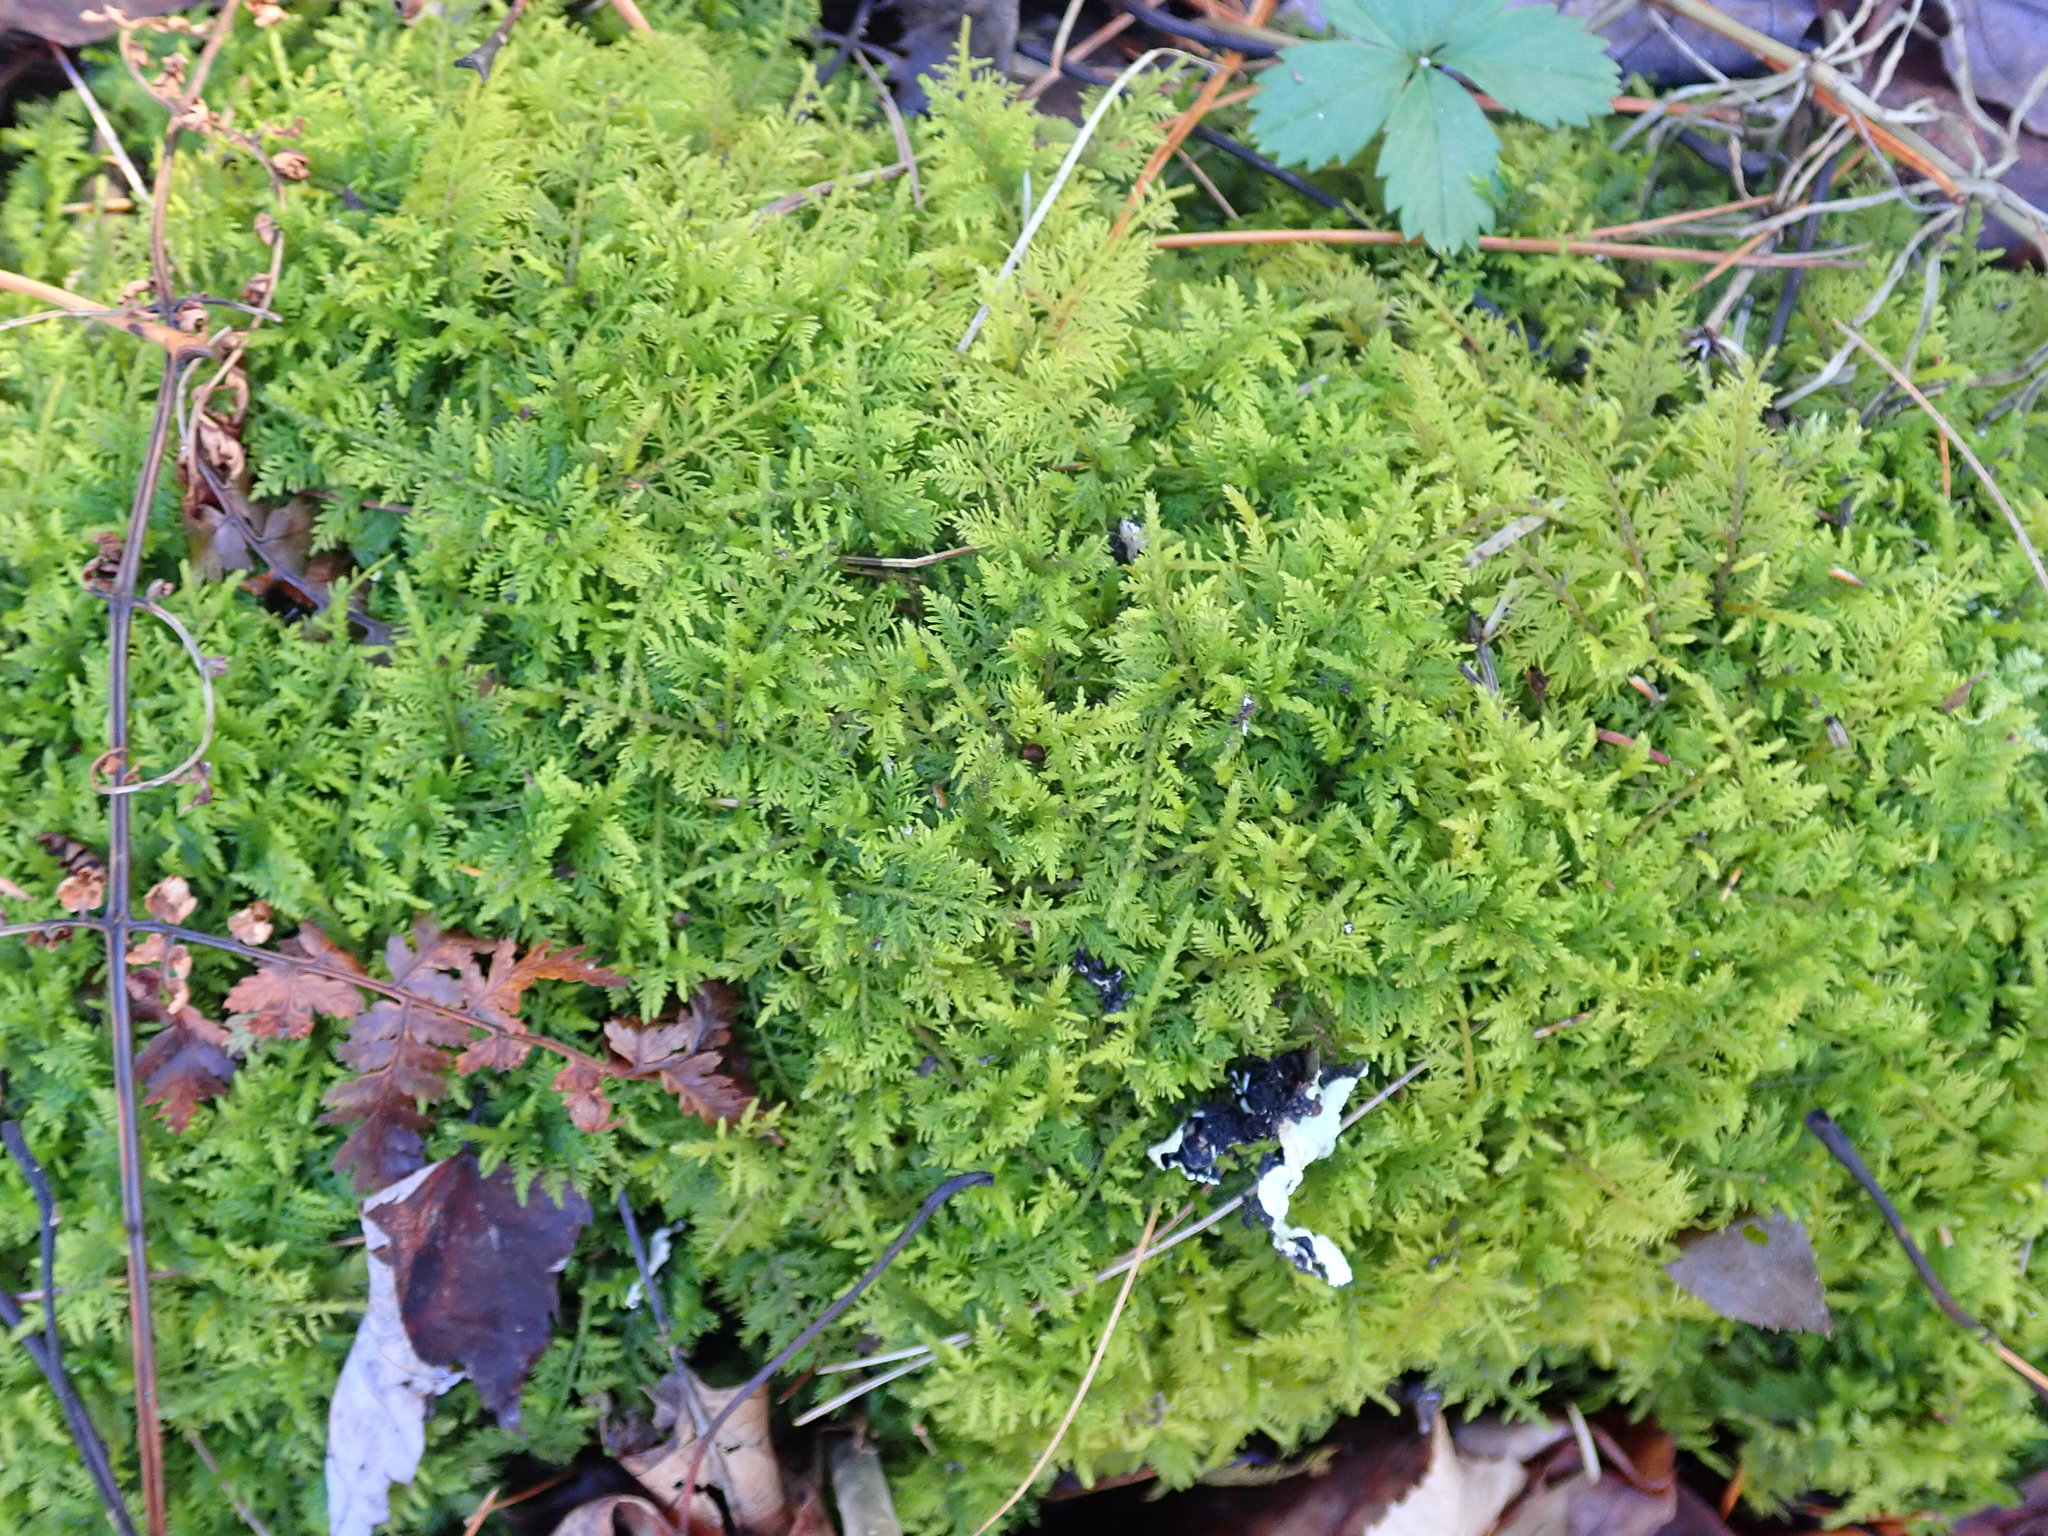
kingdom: Plantae
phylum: Bryophyta
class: Bryopsida
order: Hypnales
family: Thuidiaceae
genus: Thuidium
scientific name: Thuidium delicatulum
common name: Delicate fern moss
